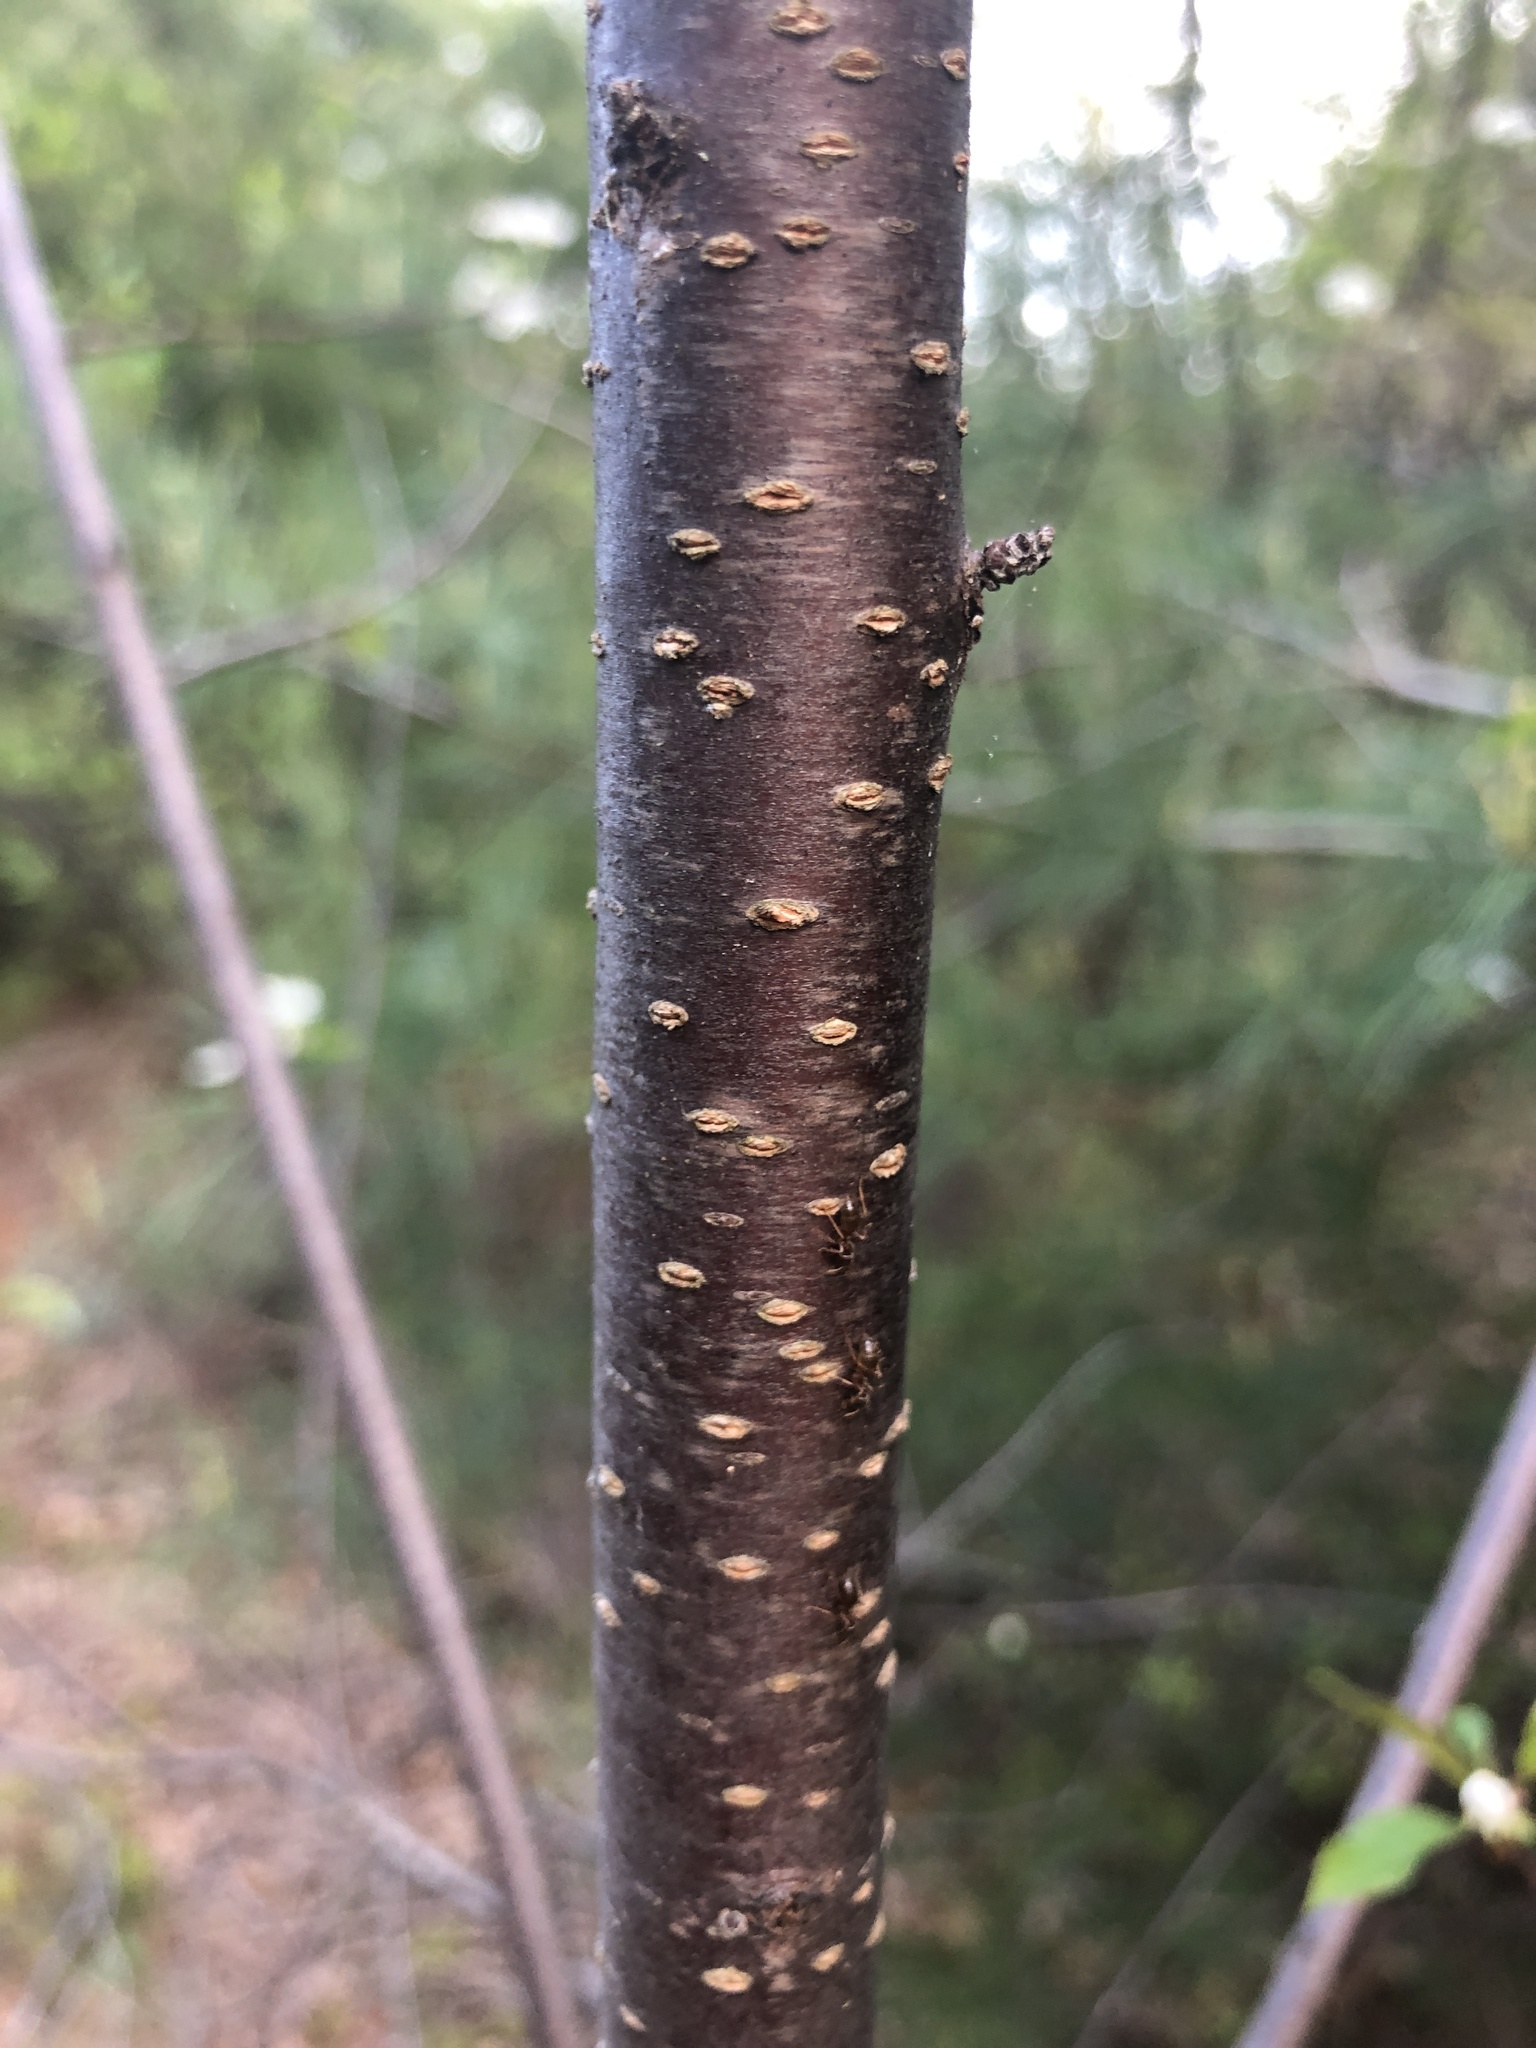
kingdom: Plantae
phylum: Tracheophyta
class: Magnoliopsida
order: Rosales
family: Rosaceae
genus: Prunus
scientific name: Prunus pensylvanica
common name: Pin cherry
